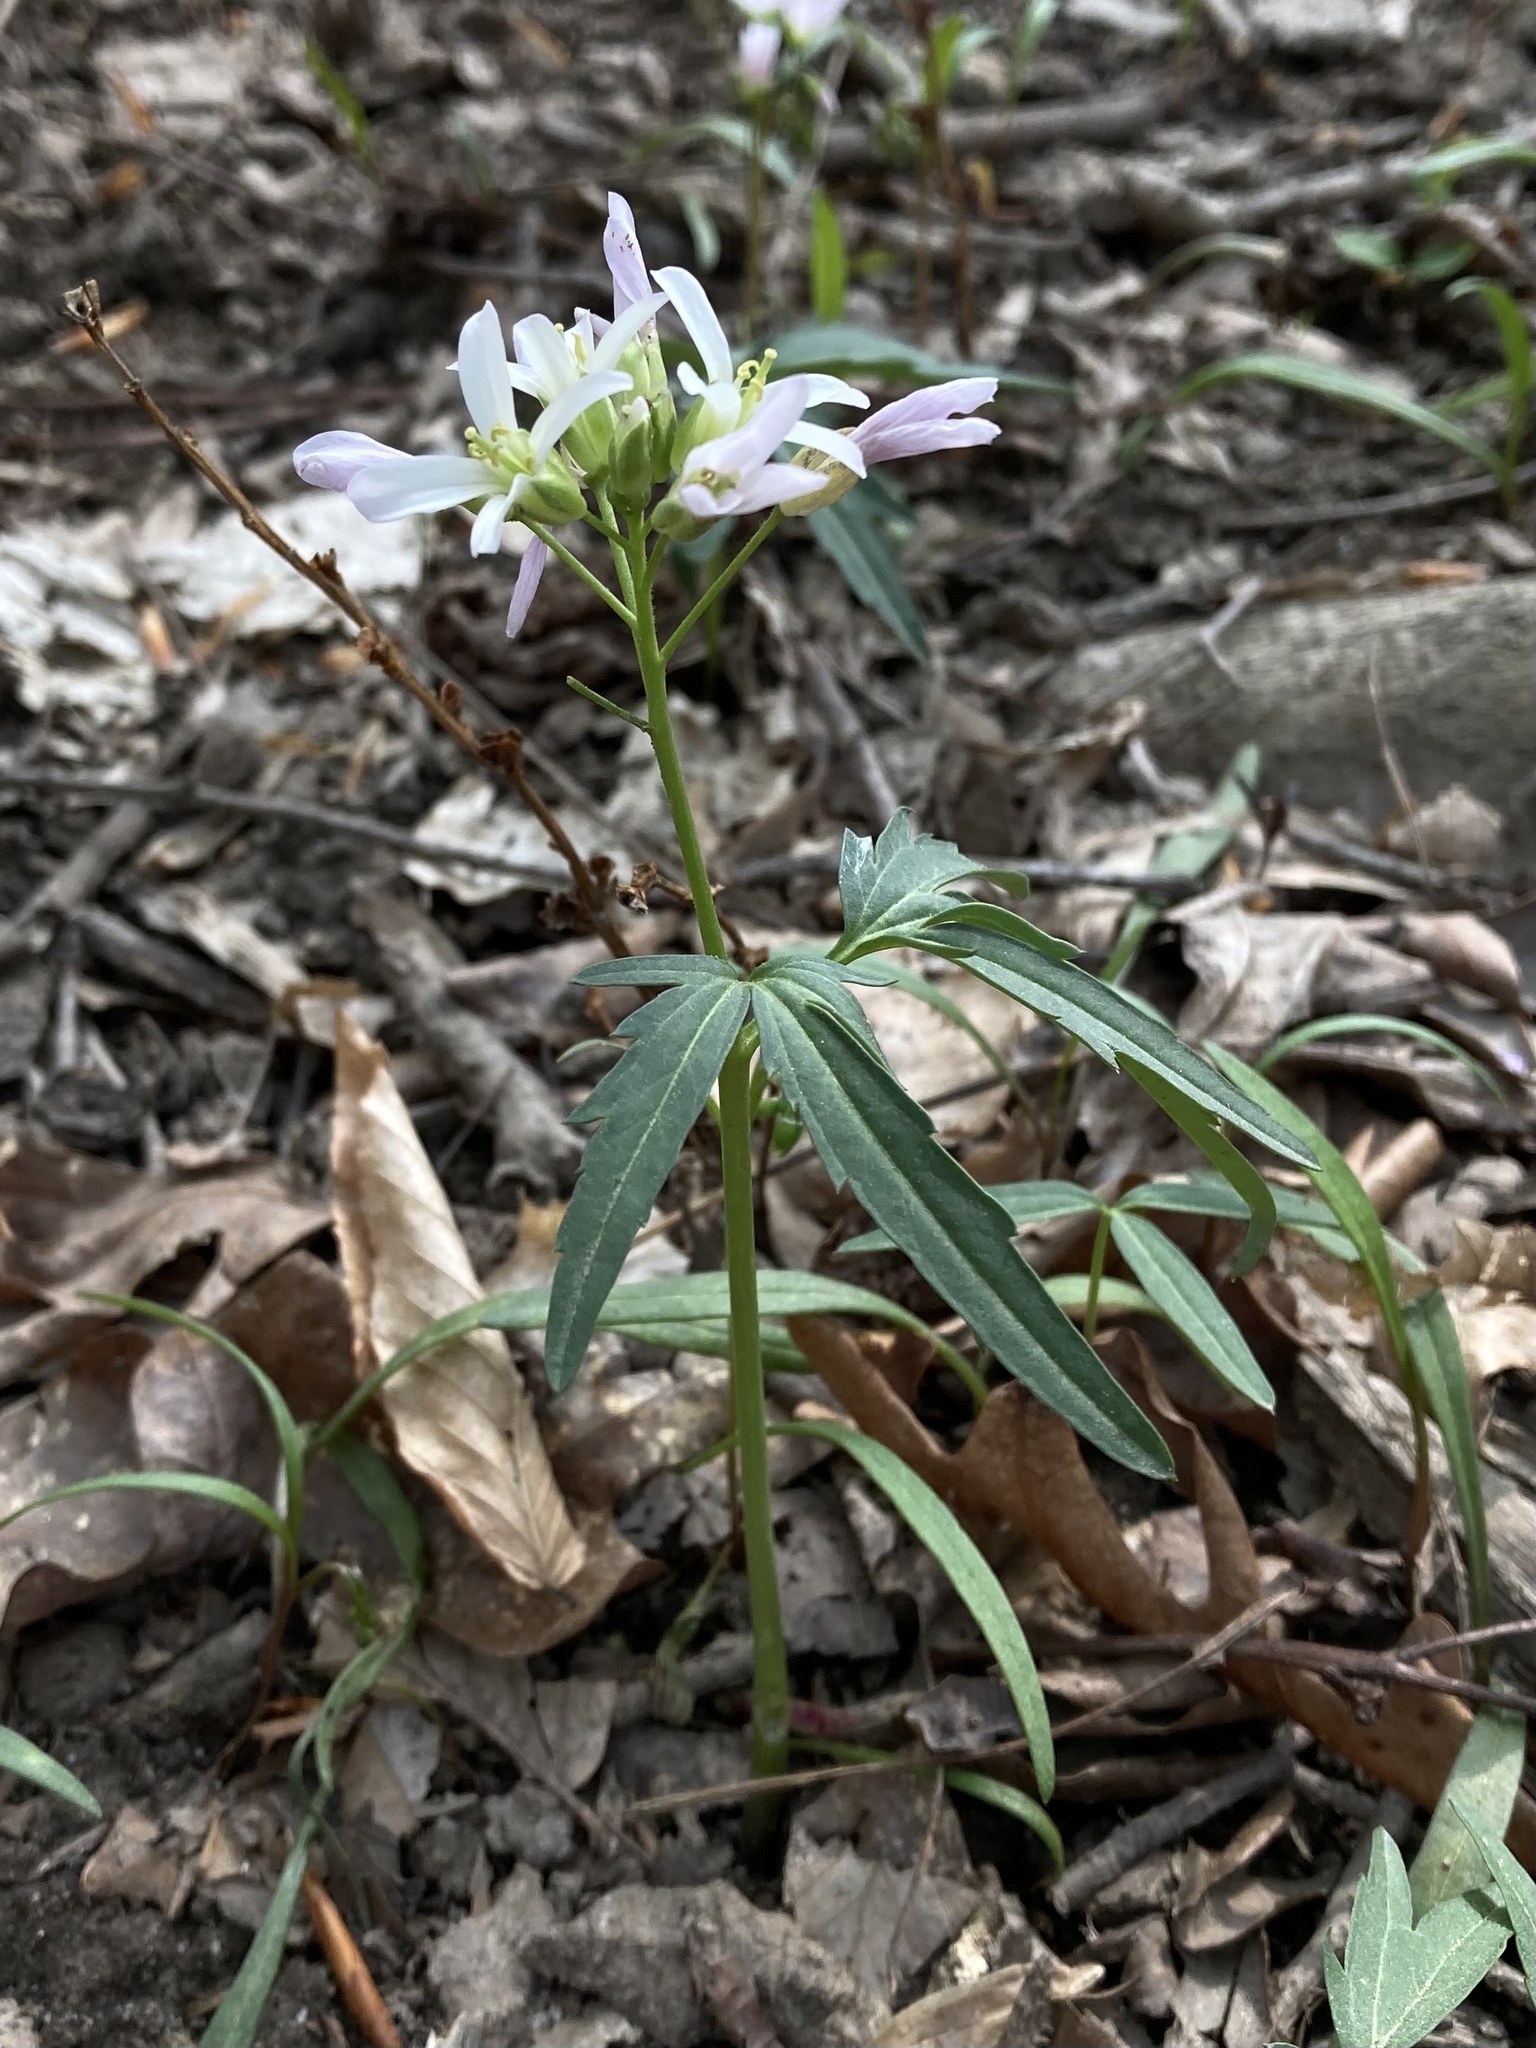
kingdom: Plantae
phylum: Tracheophyta
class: Magnoliopsida
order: Brassicales
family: Brassicaceae
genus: Cardamine
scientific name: Cardamine concatenata
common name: Cut-leaf toothcup
